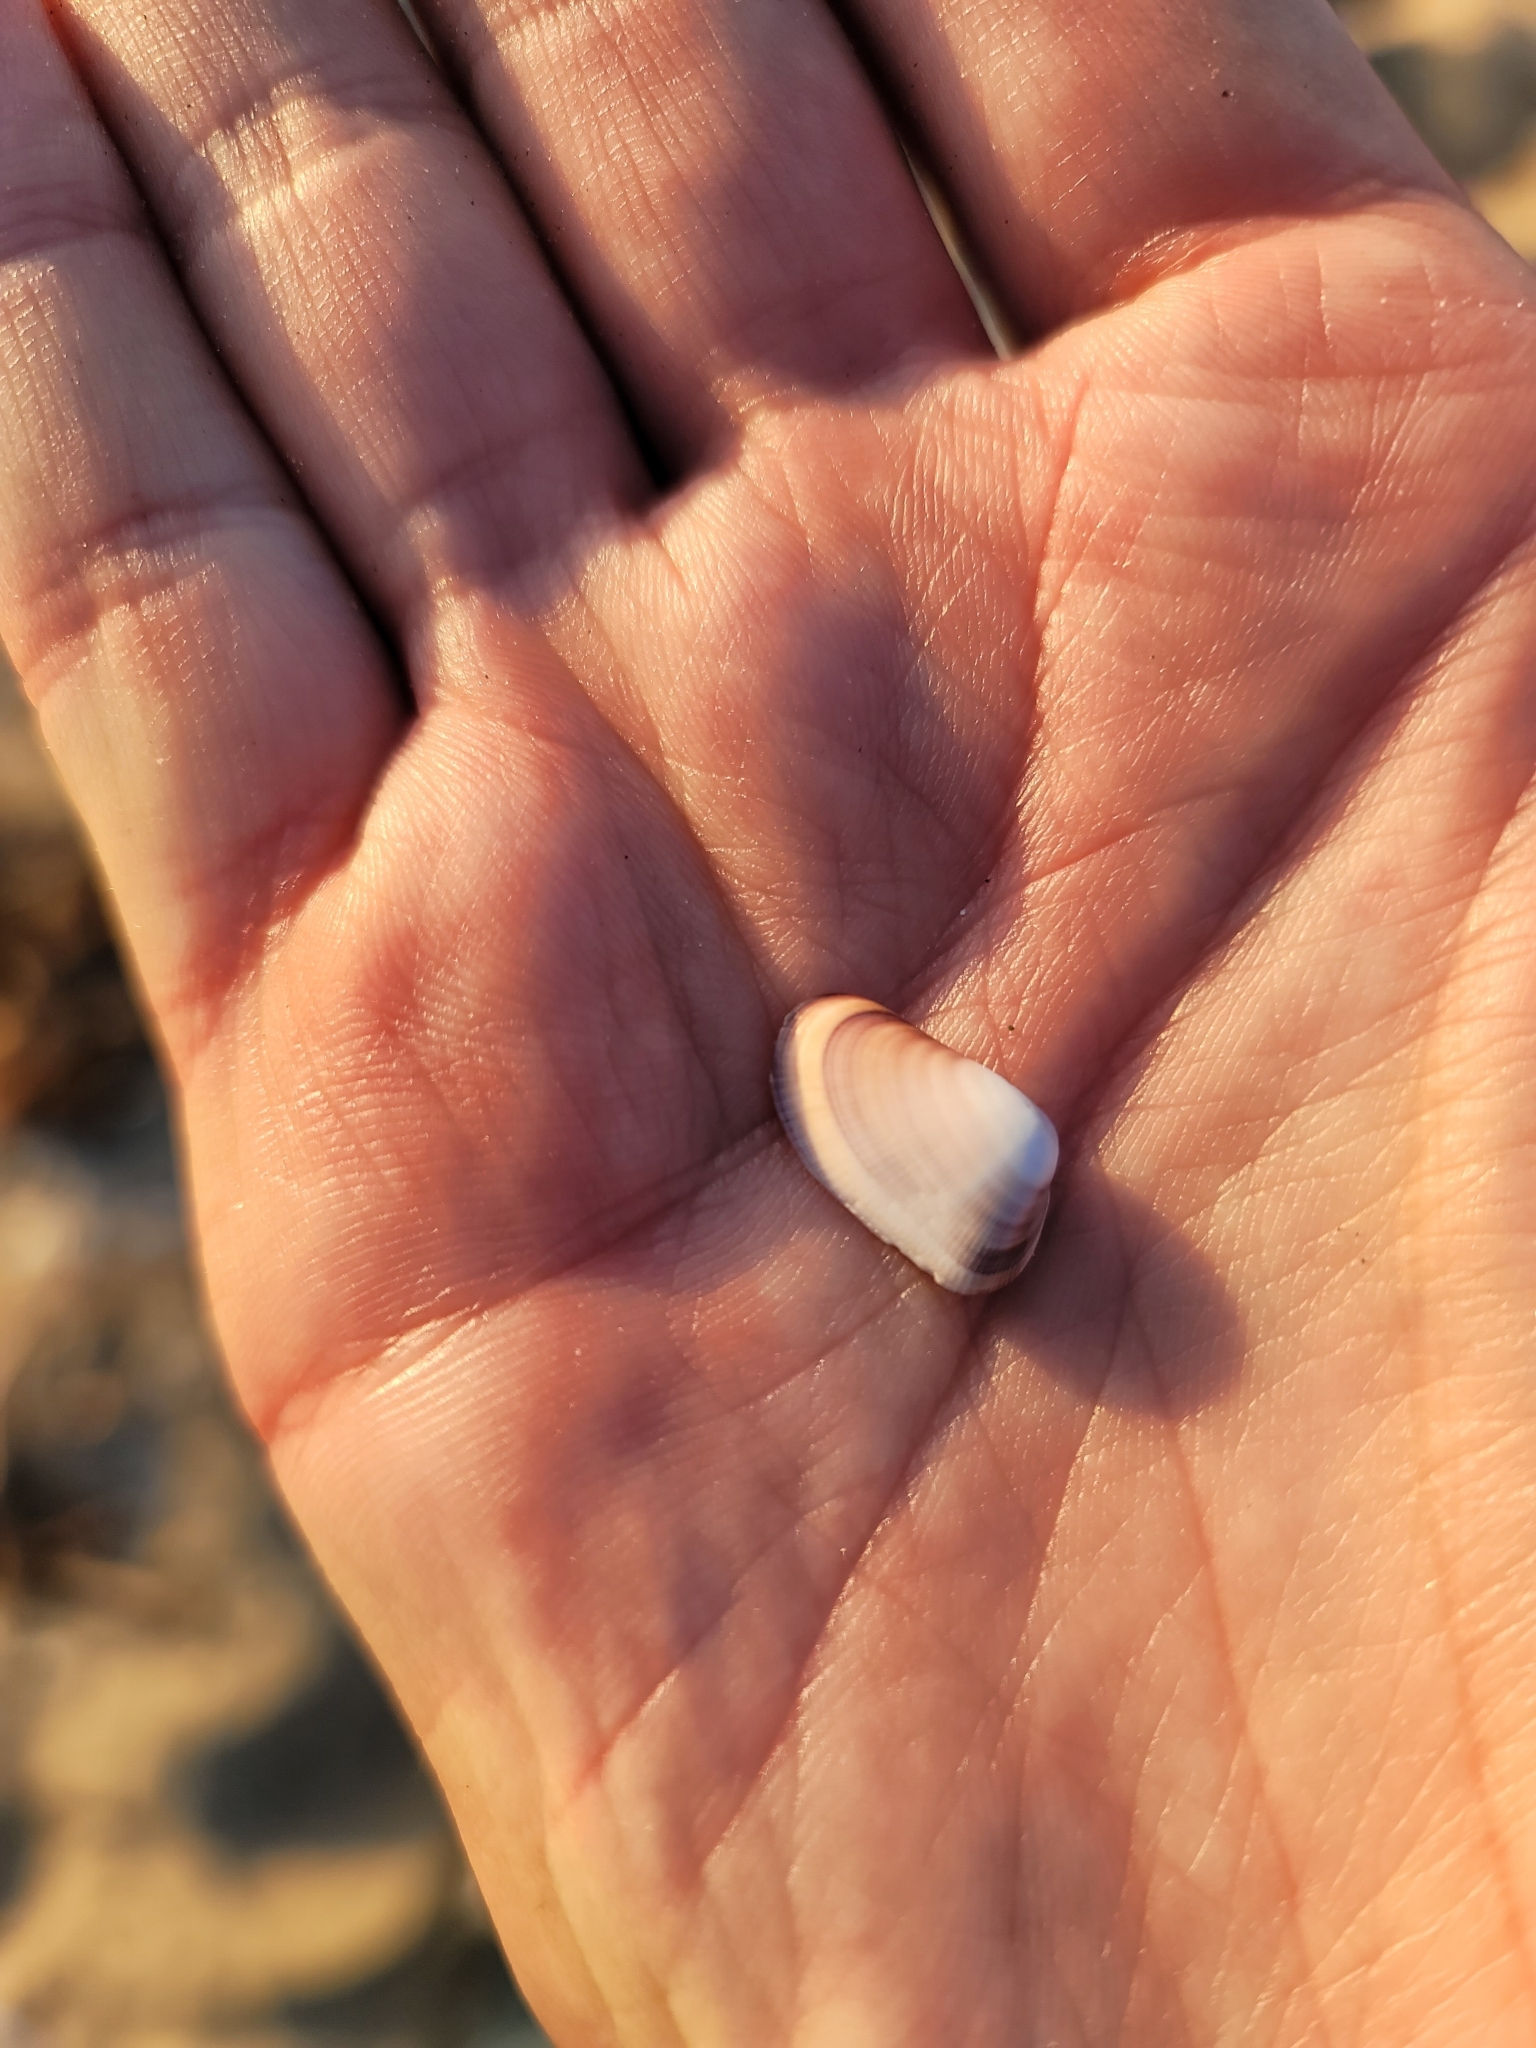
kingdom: Animalia
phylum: Mollusca
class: Bivalvia
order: Cardiida
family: Donacidae
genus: Donax
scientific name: Donax gouldii
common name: Gould beanclam
